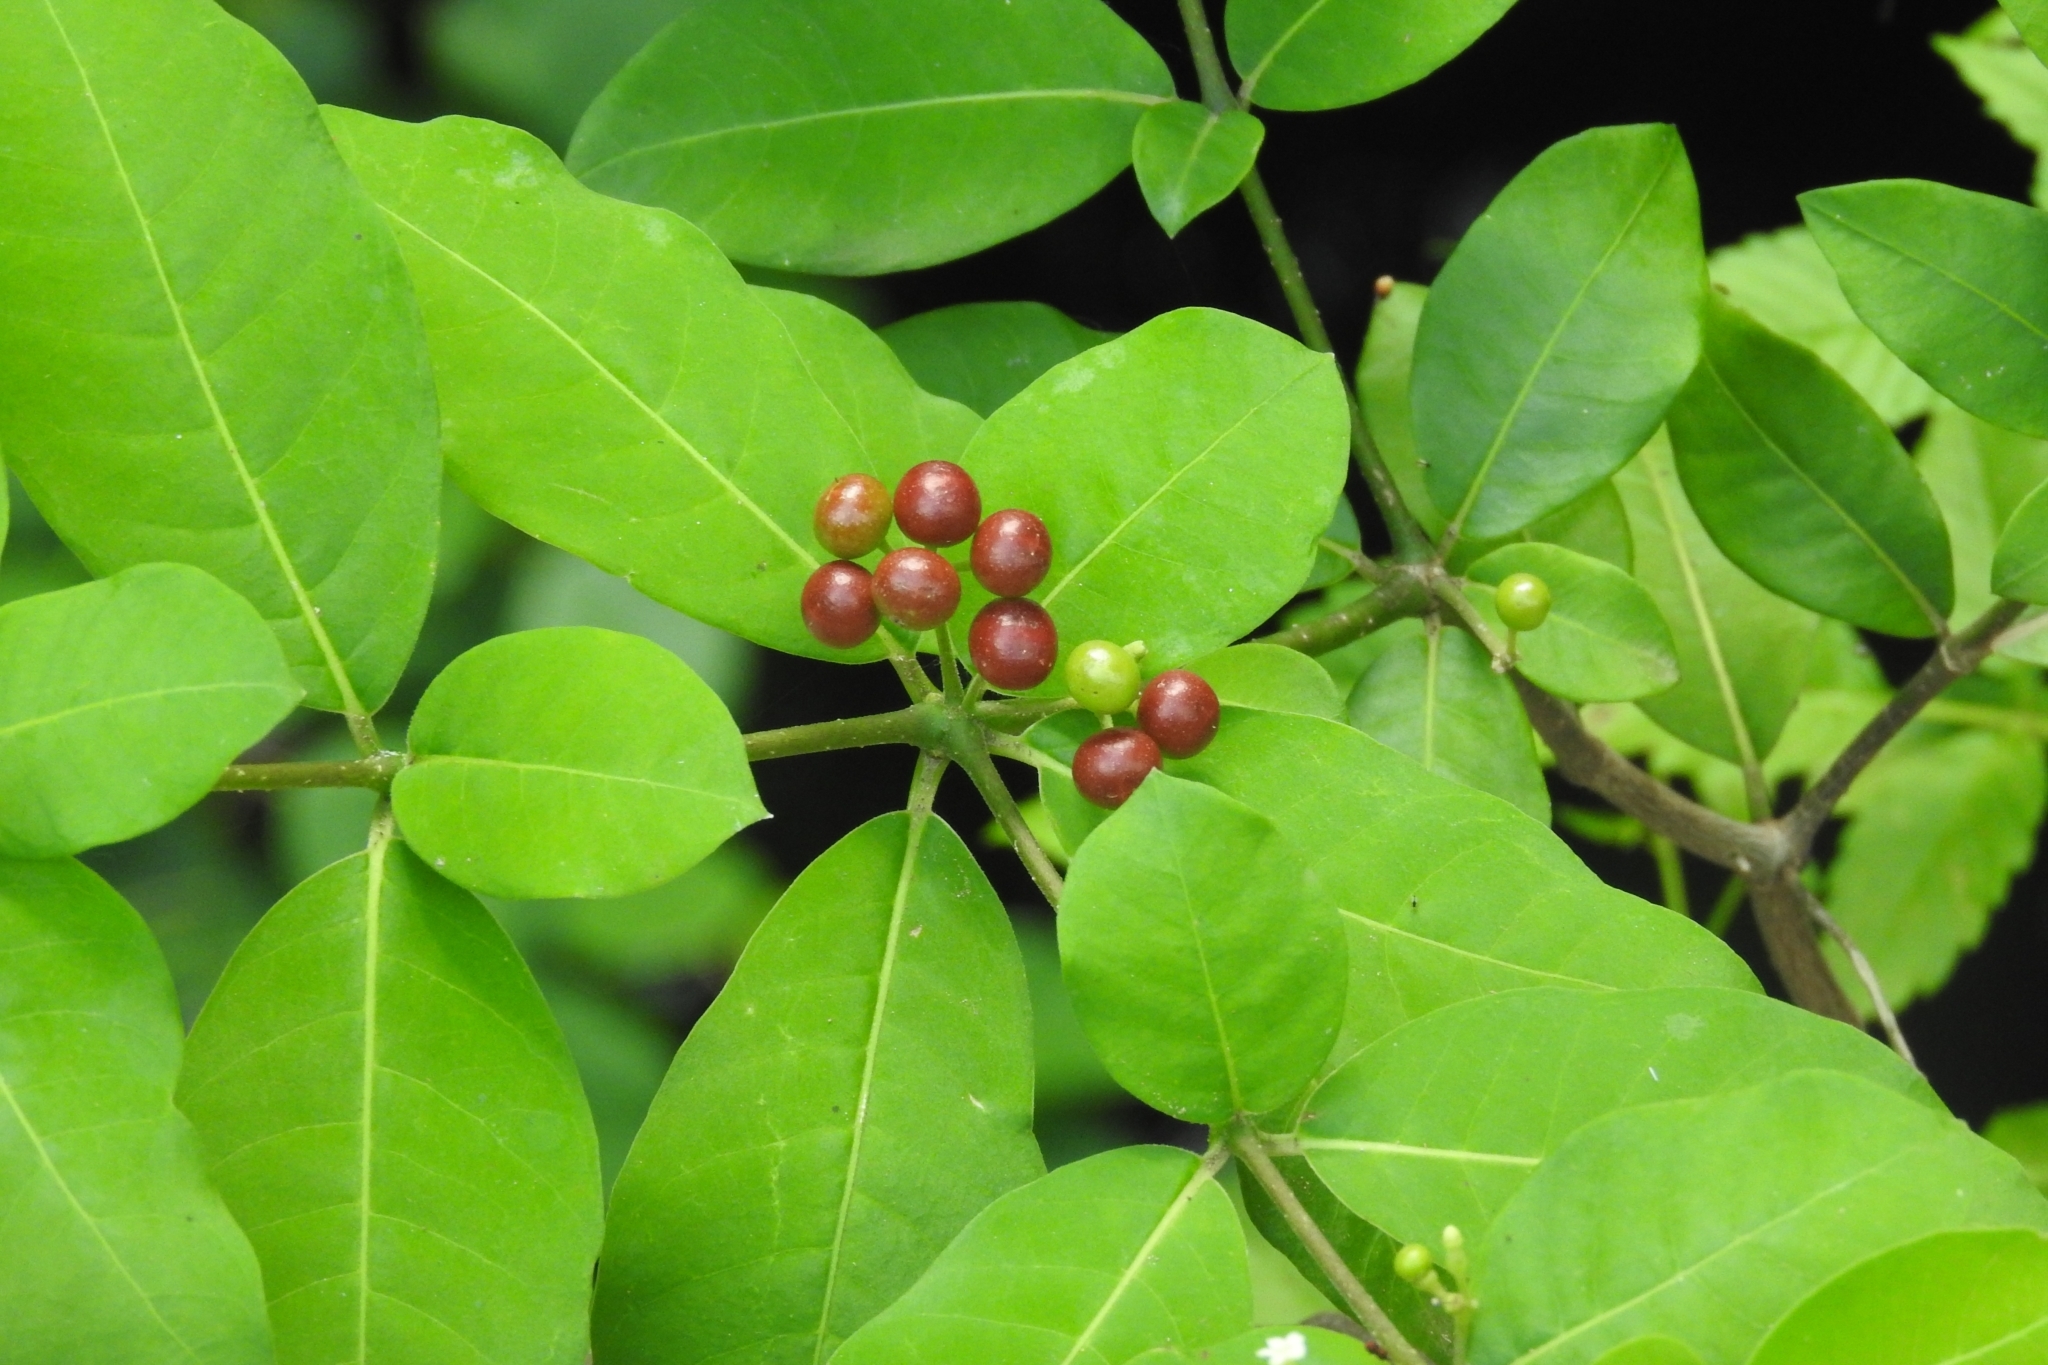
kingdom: Plantae
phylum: Tracheophyta
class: Magnoliopsida
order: Gentianales
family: Apocynaceae
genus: Rauvolfia
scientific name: Rauvolfia tetraphylla
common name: Four-leaf devil-pepper
